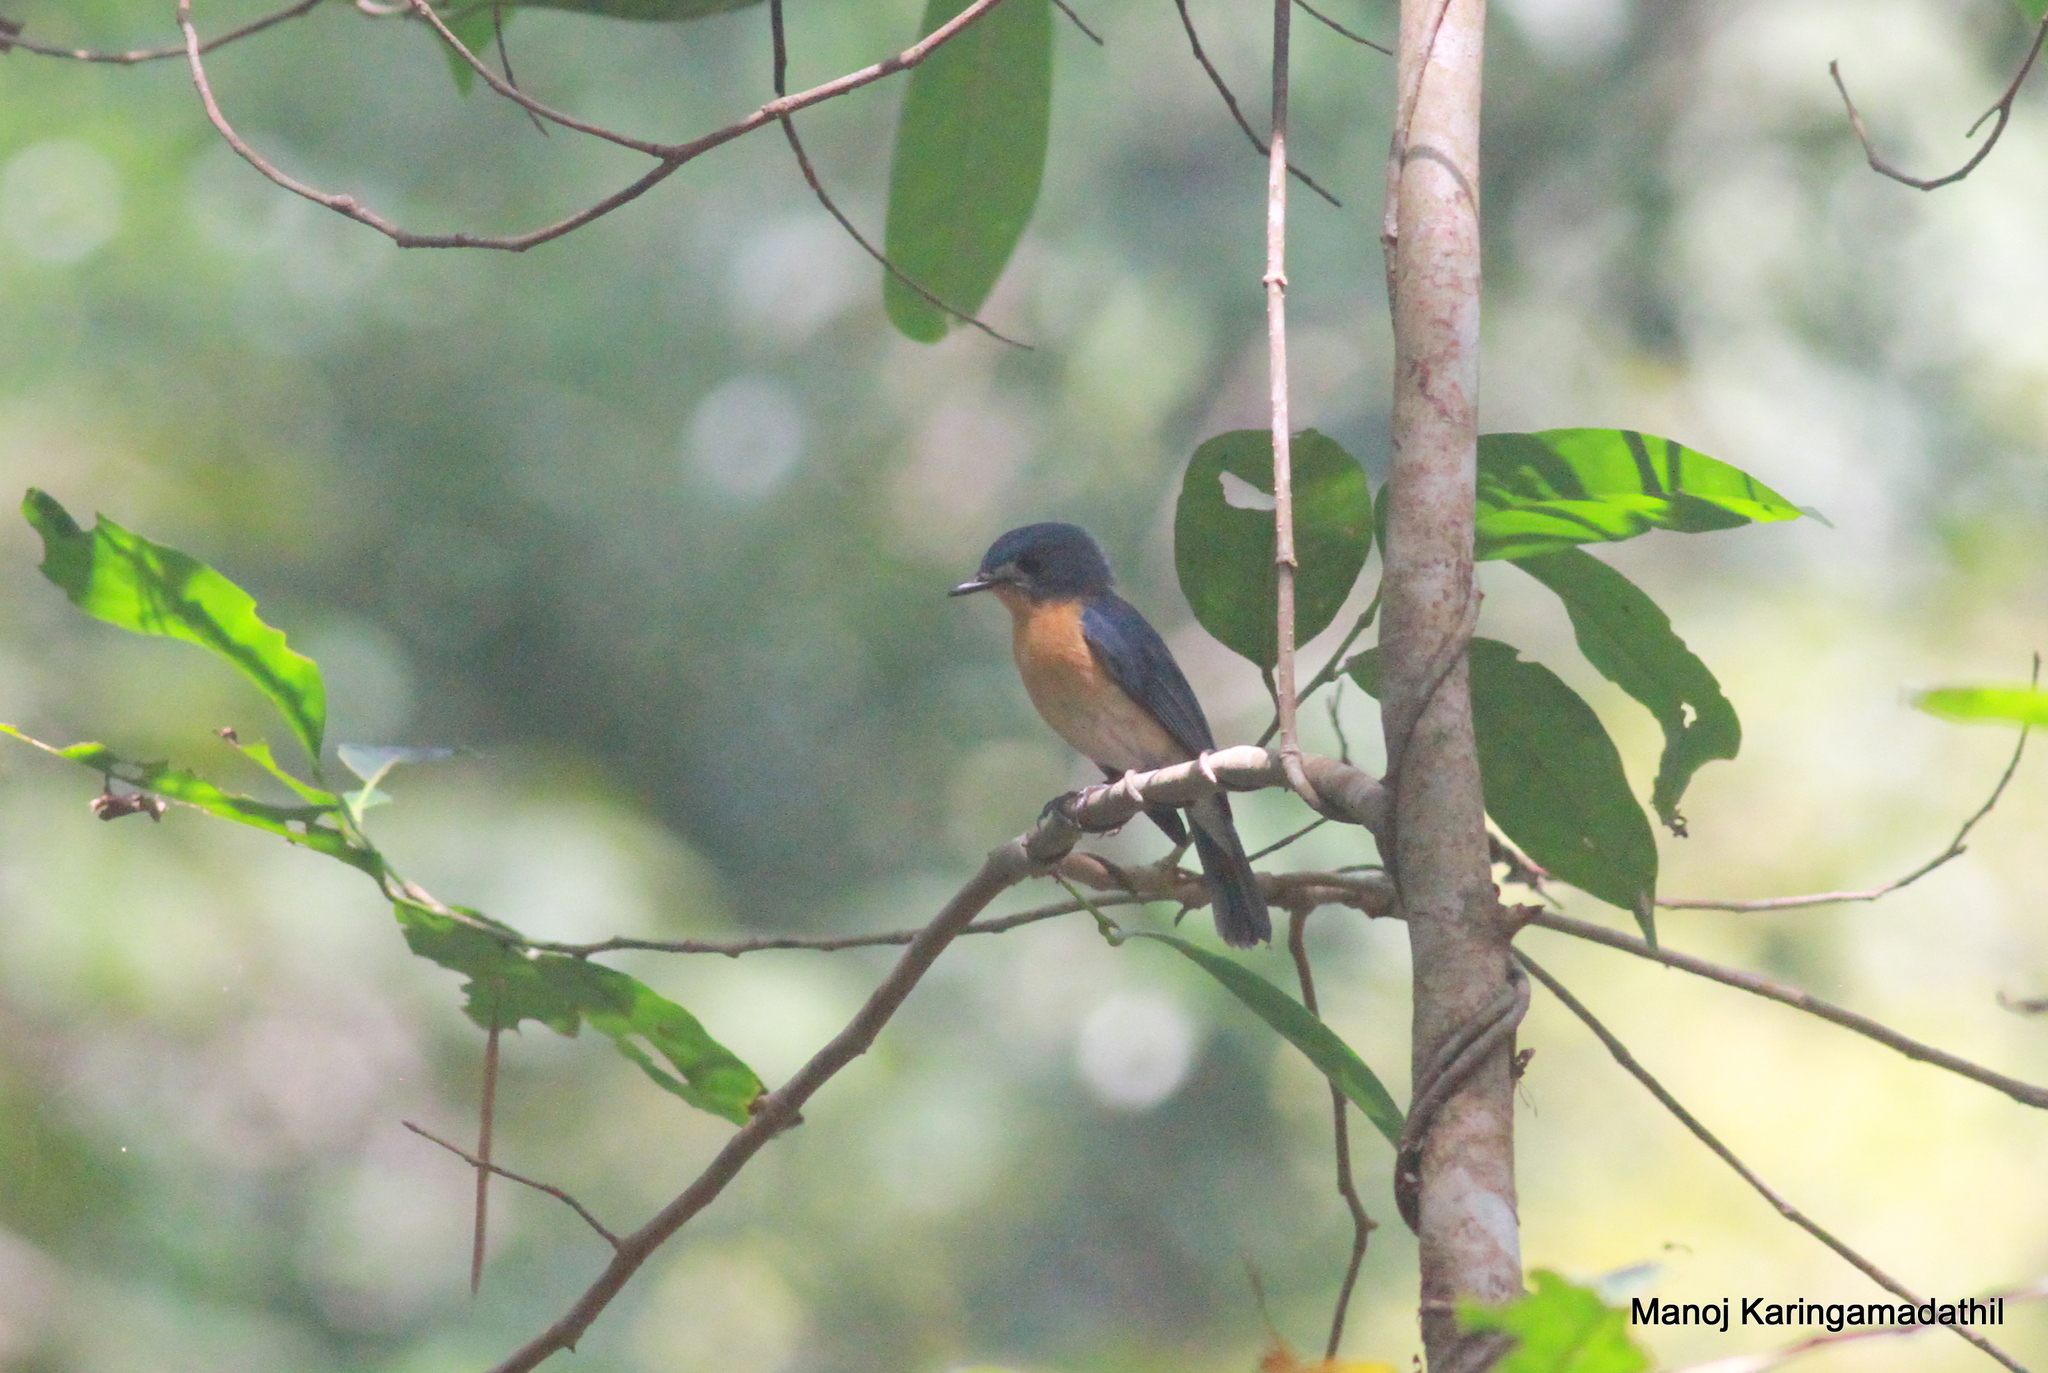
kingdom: Animalia
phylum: Chordata
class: Aves
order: Passeriformes
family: Muscicapidae
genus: Cyornis
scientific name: Cyornis tickelliae
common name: Tickell's blue flycatcher
